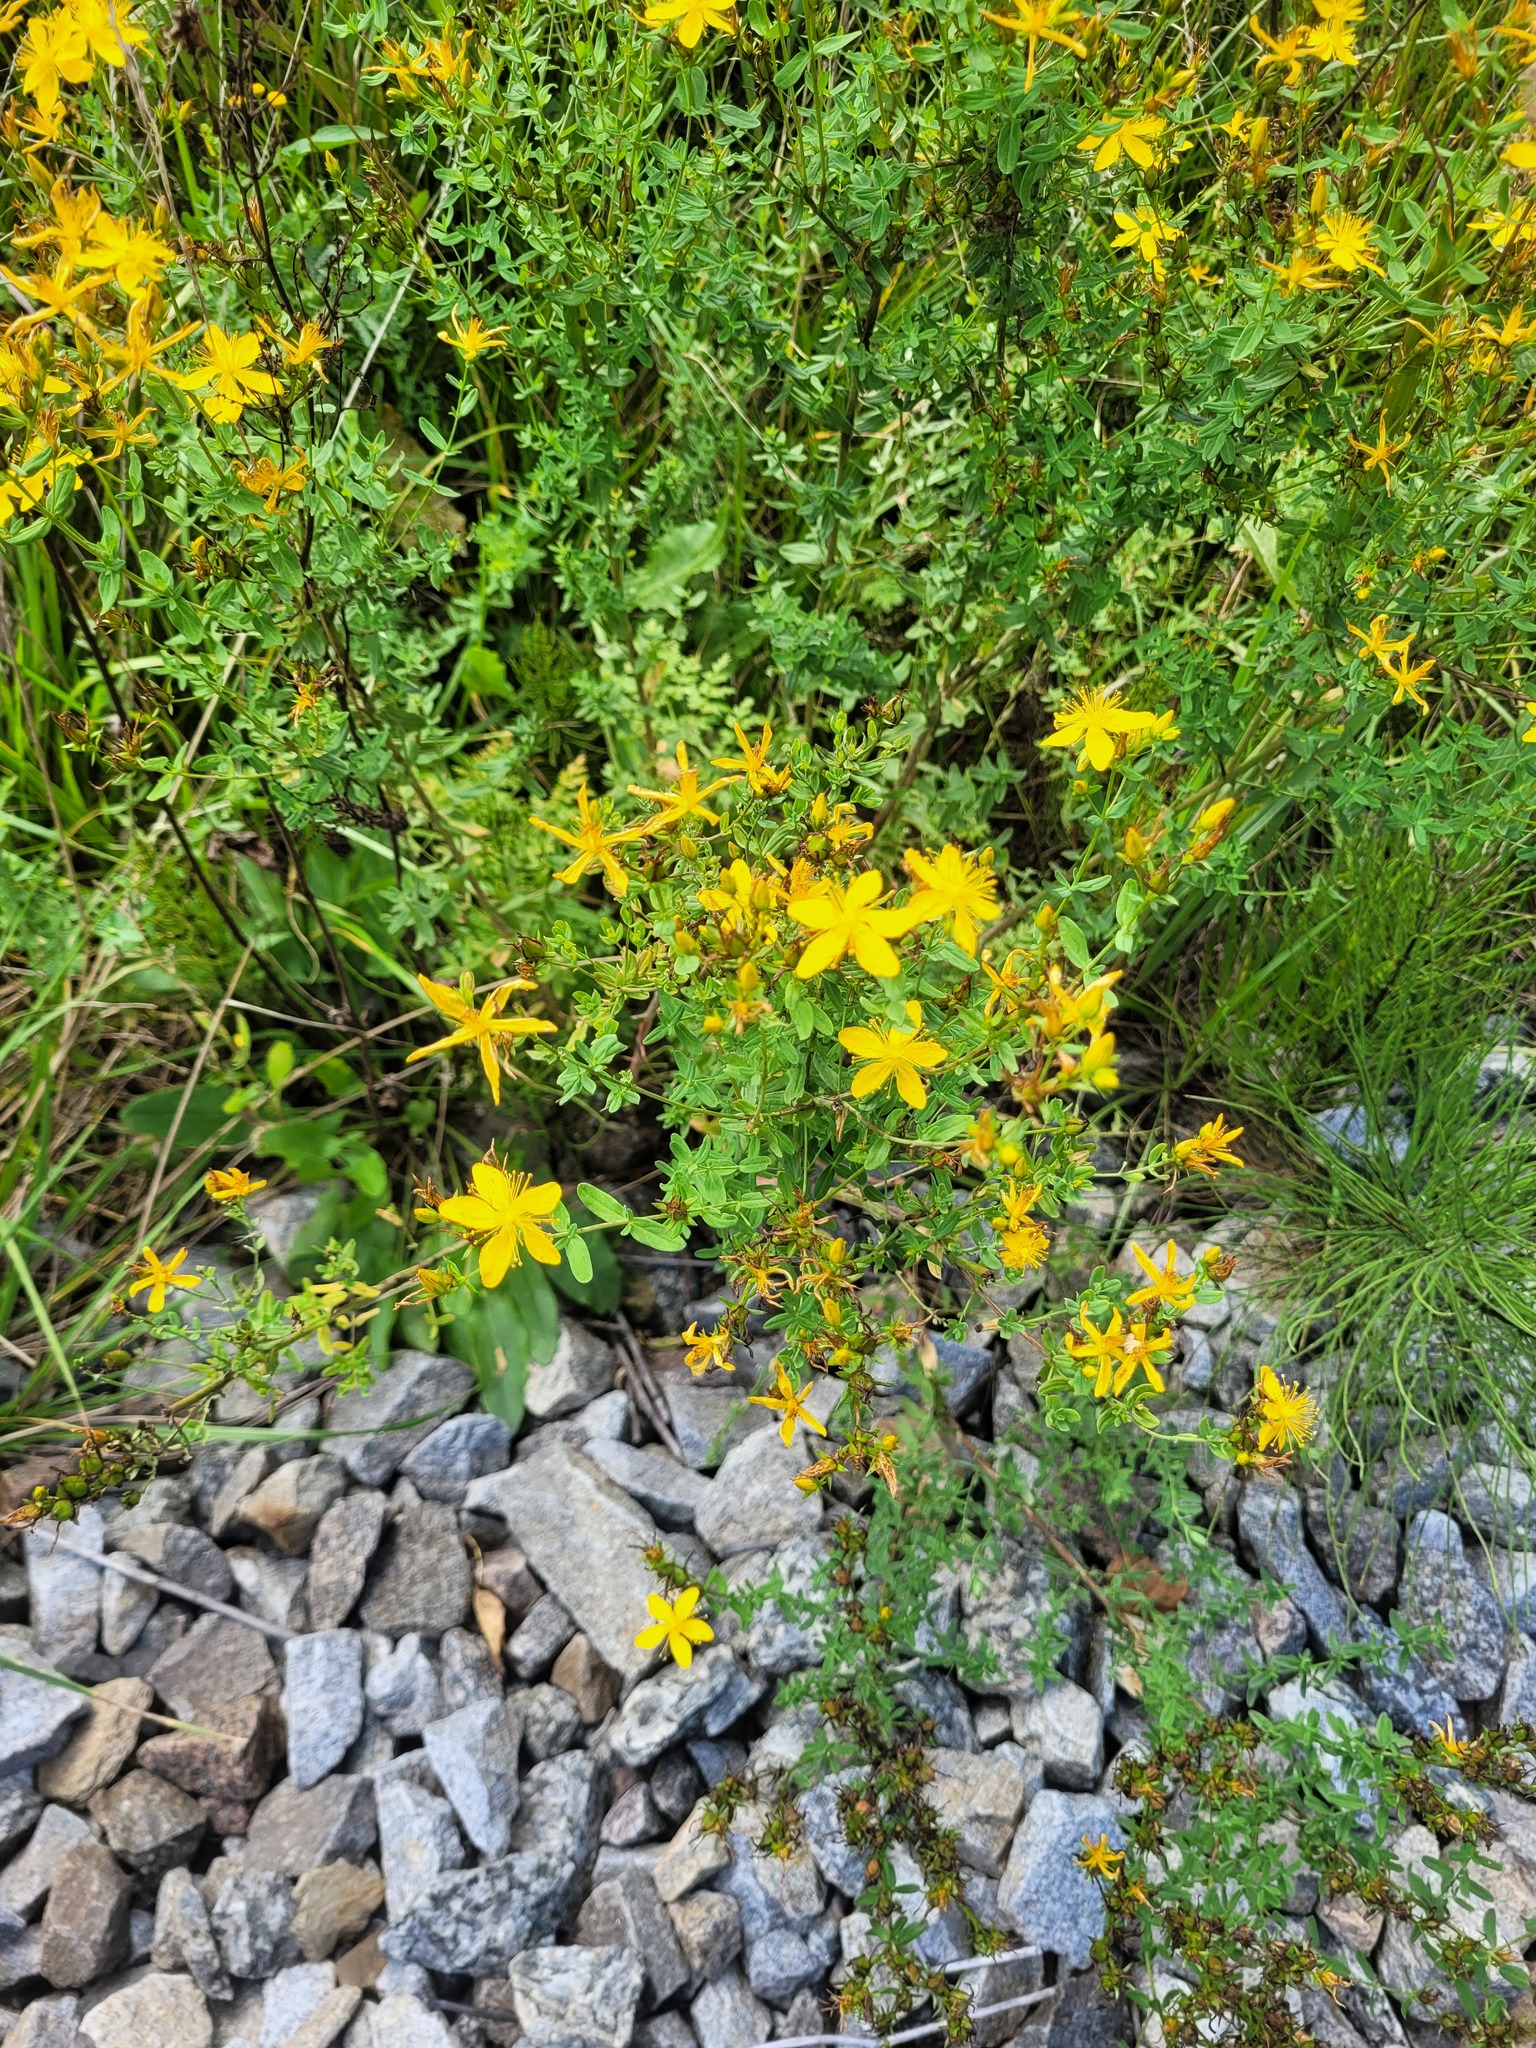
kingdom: Plantae
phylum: Tracheophyta
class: Magnoliopsida
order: Malpighiales
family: Hypericaceae
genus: Hypericum
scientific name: Hypericum perforatum
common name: Common st. johnswort
